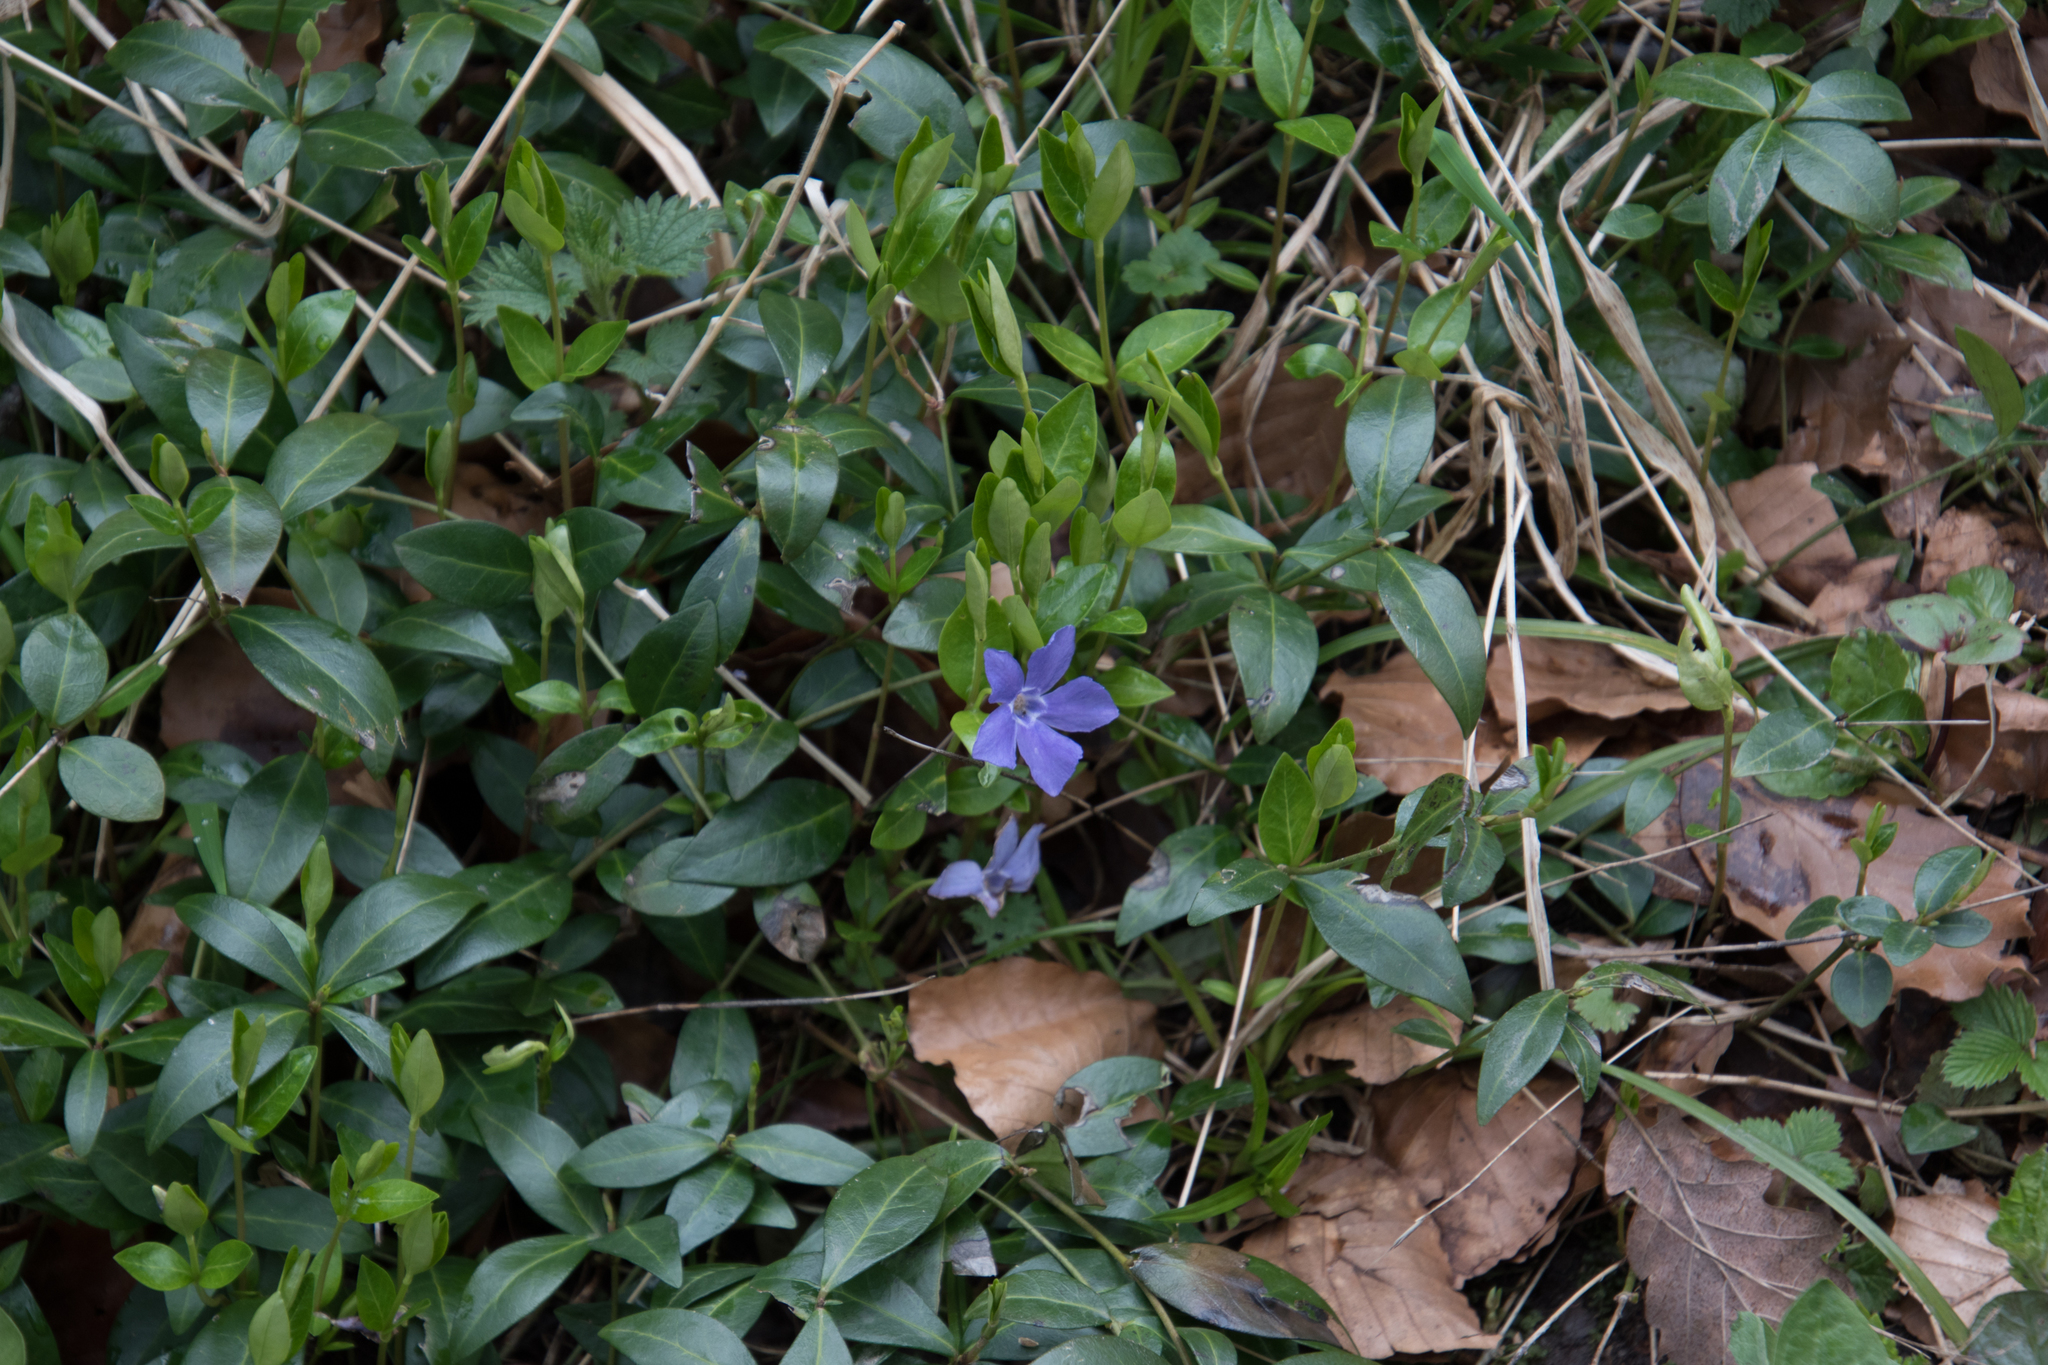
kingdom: Plantae
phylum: Tracheophyta
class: Magnoliopsida
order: Gentianales
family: Apocynaceae
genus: Vinca
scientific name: Vinca minor
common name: Lesser periwinkle
